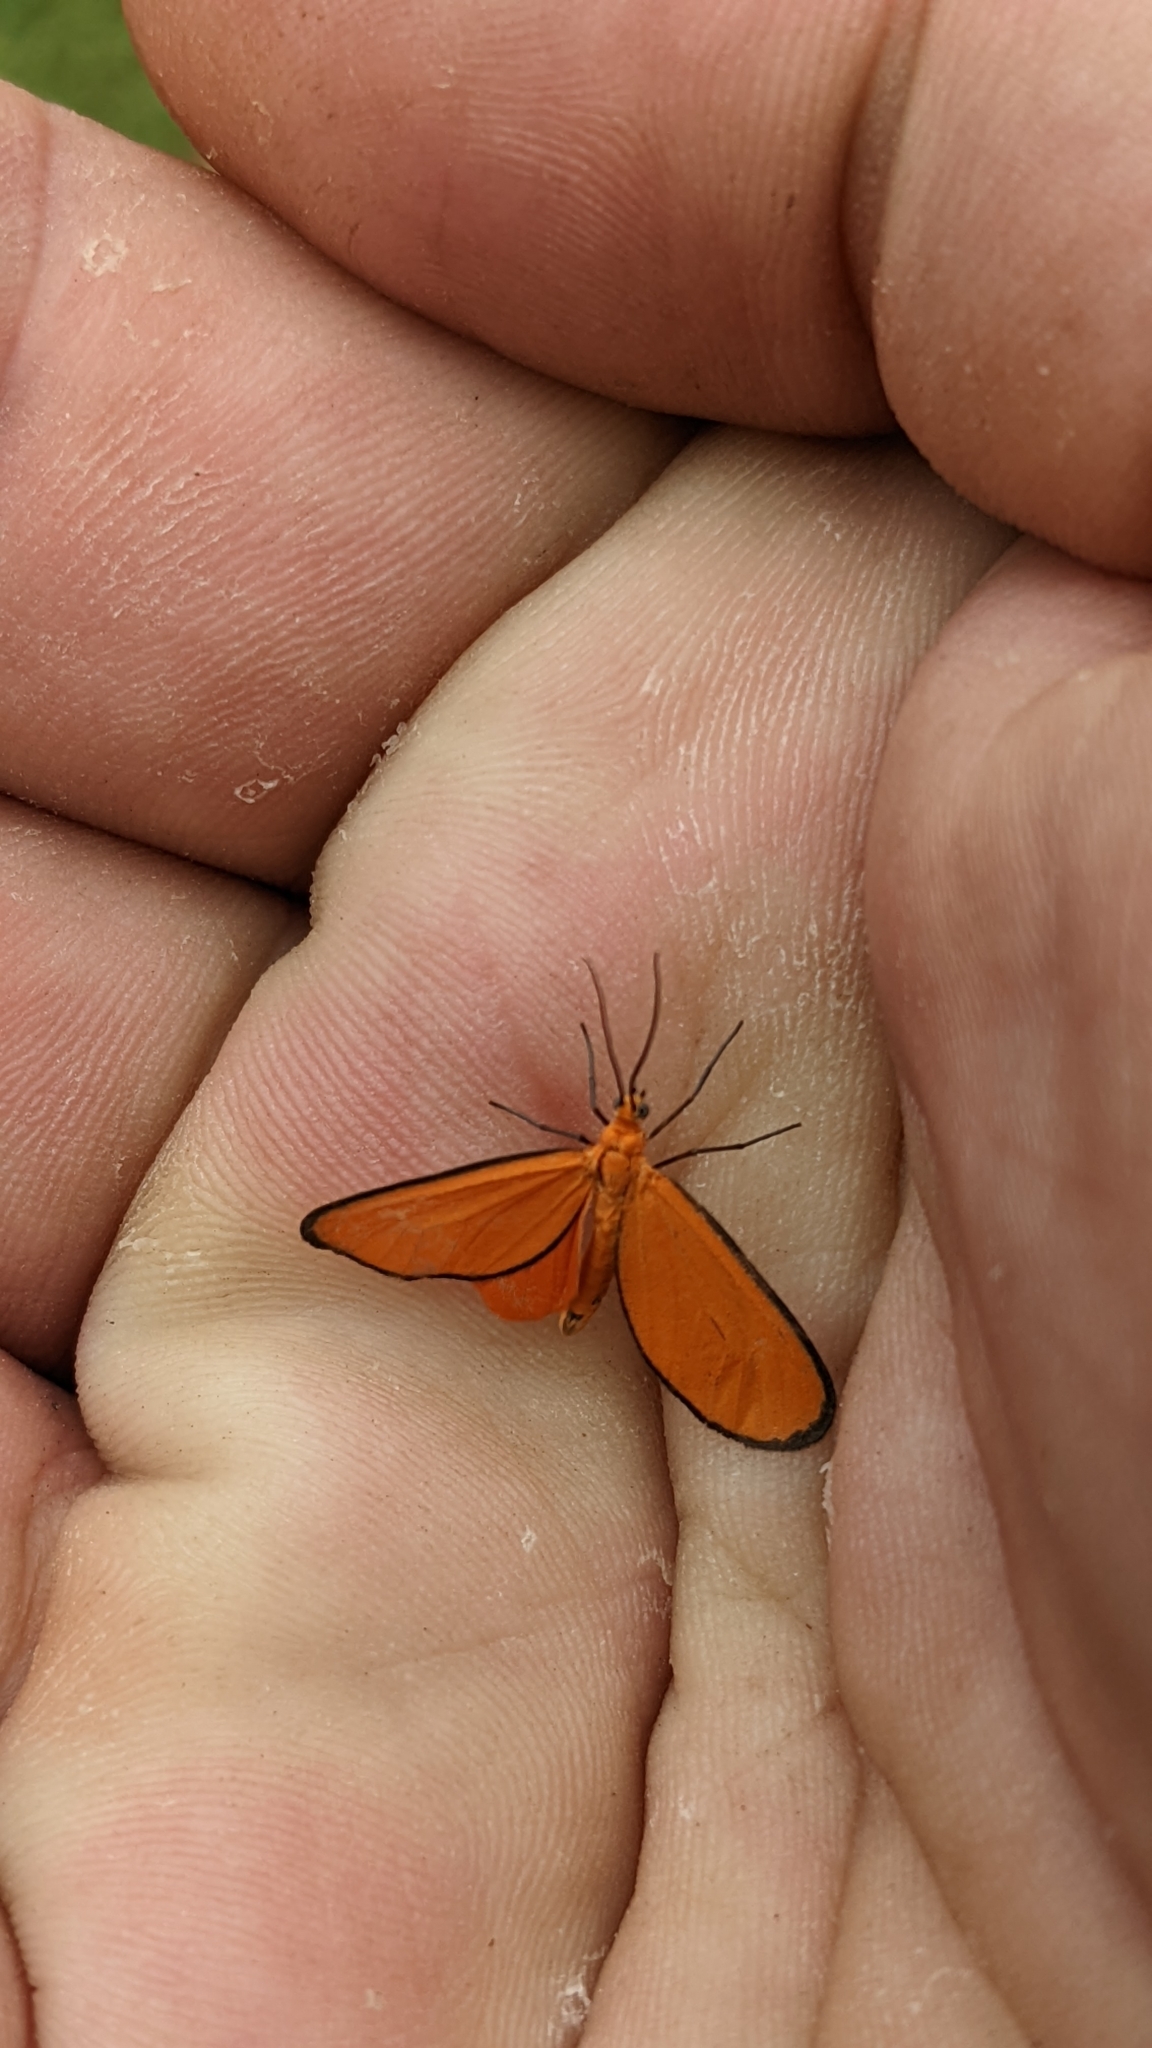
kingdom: Animalia
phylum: Arthropoda
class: Insecta
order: Lepidoptera
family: Geometridae
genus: Eudulophasia
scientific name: Eudulophasia invaria
